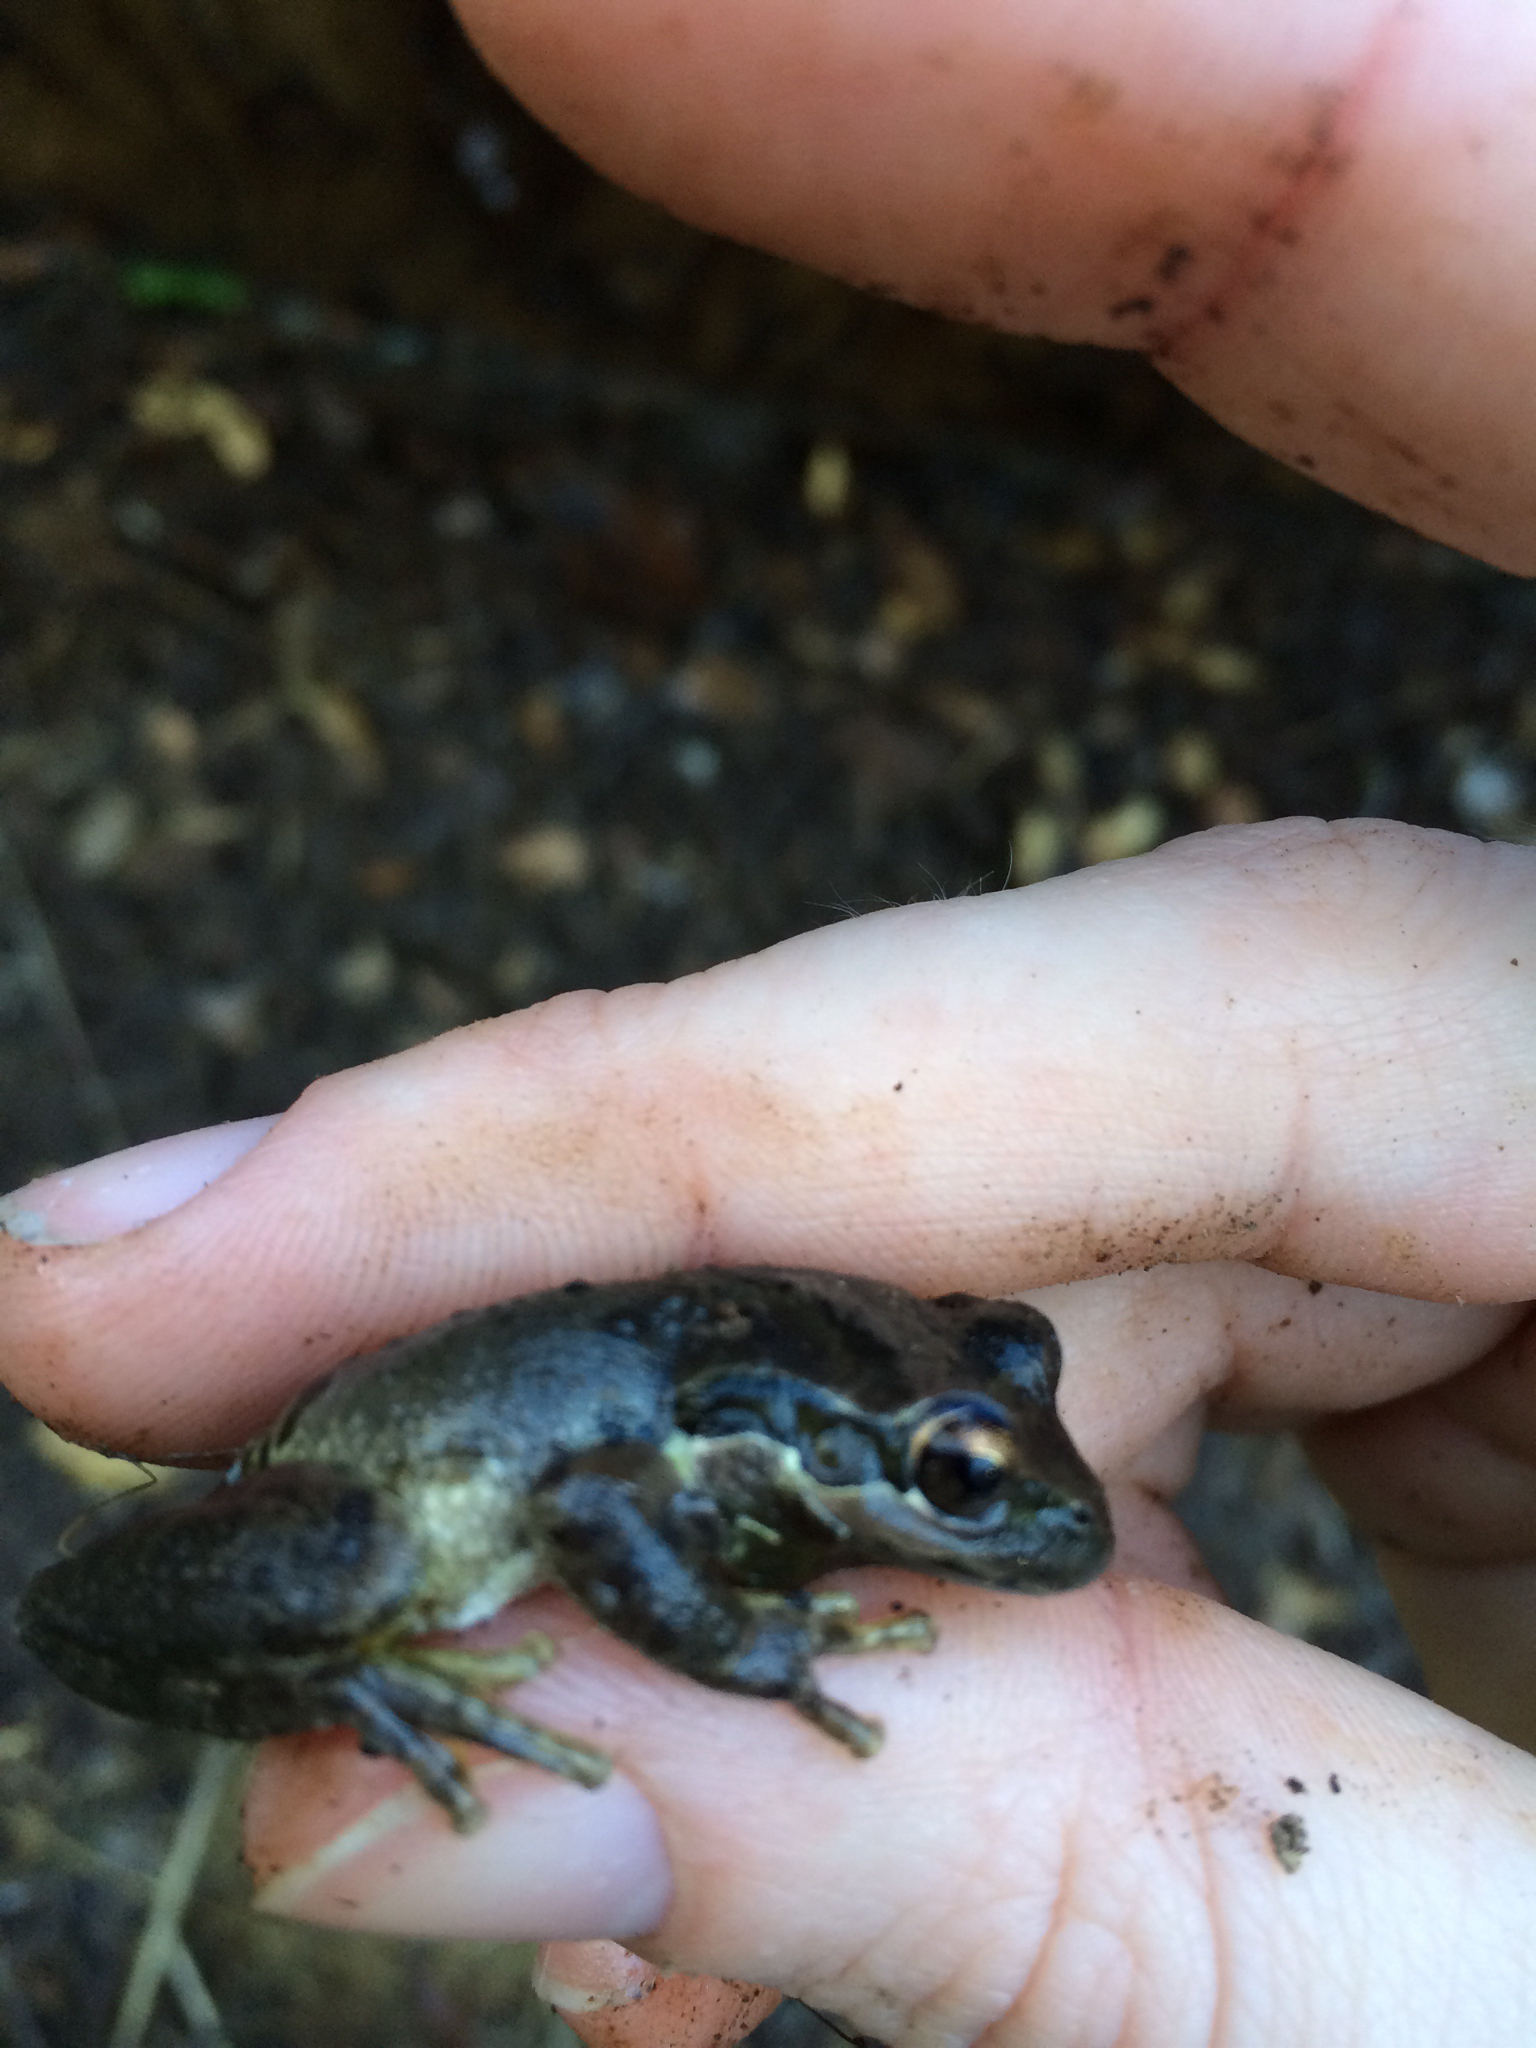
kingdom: Animalia
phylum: Chordata
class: Amphibia
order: Anura
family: Hylidae
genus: Pseudacris
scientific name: Pseudacris regilla
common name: Pacific chorus frog
